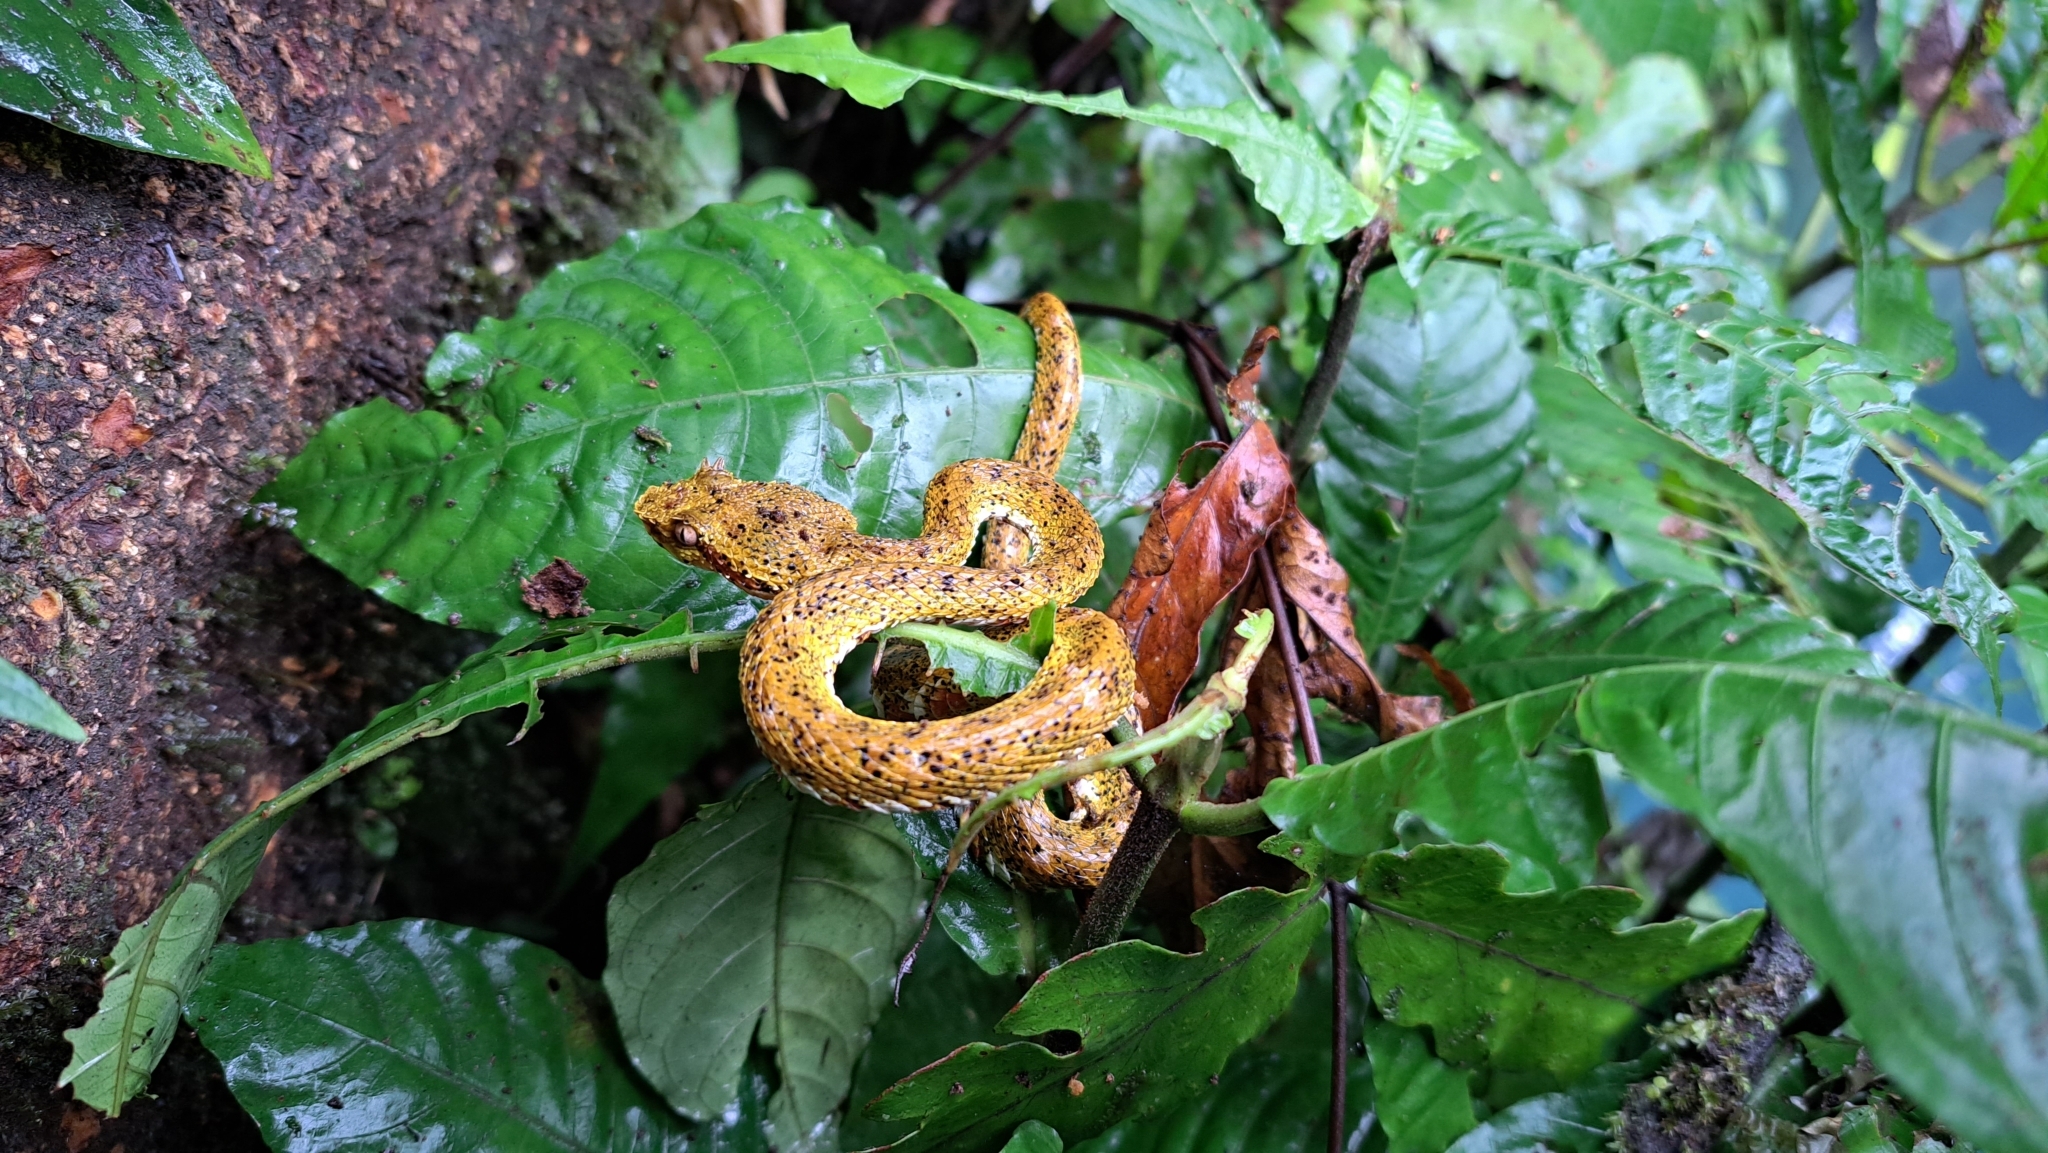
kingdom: Animalia
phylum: Chordata
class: Squamata
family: Viperidae
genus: Bothriechis
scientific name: Bothriechis schlegelii
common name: Eyelash viper
